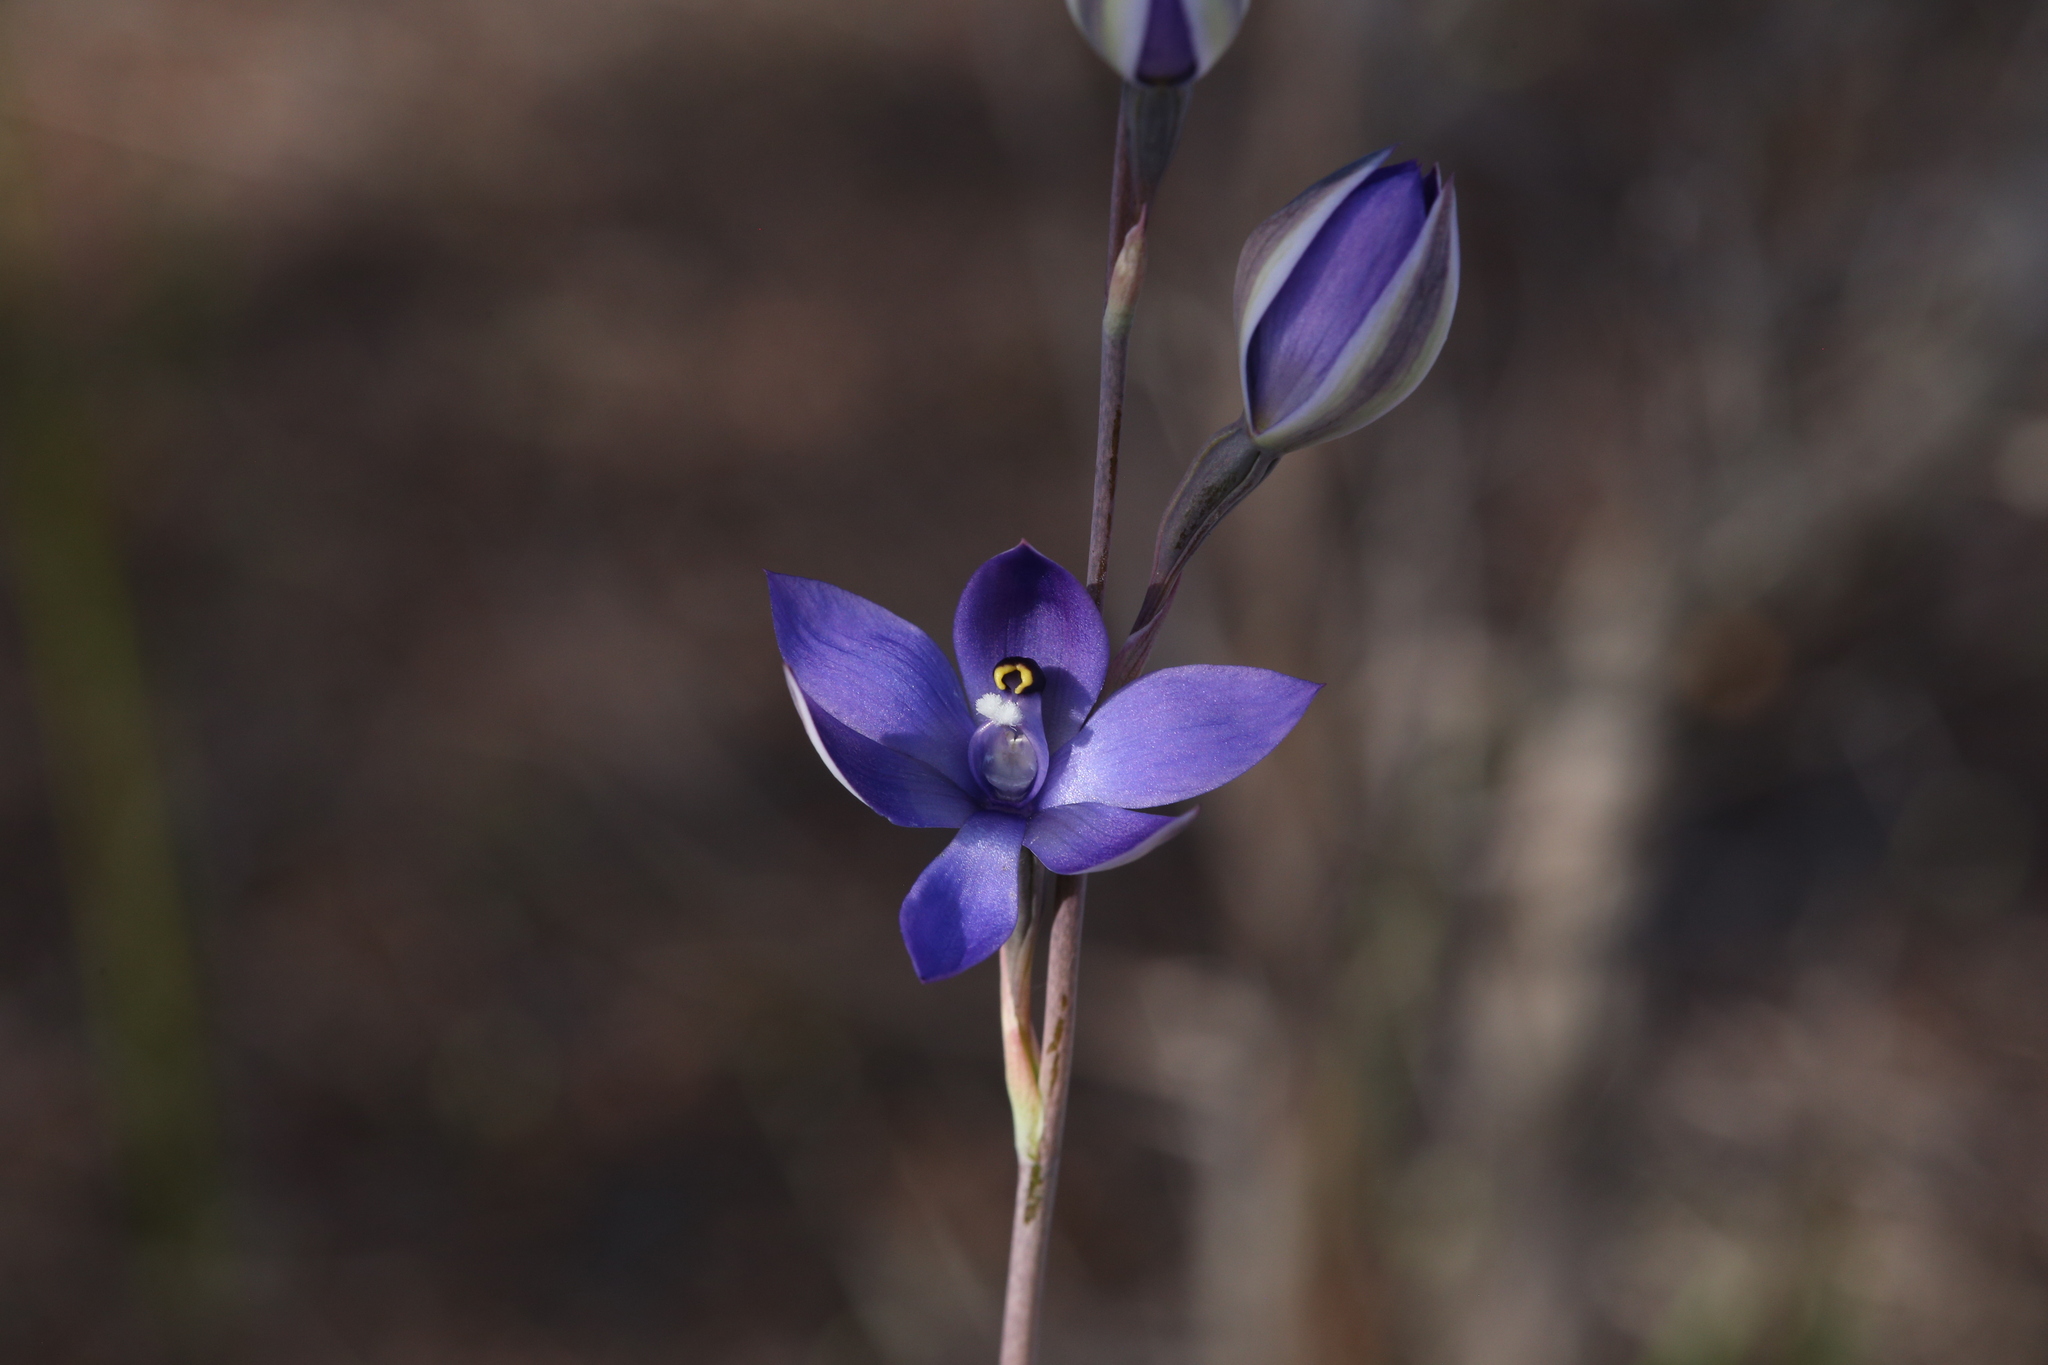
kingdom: Plantae
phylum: Tracheophyta
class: Liliopsida
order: Asparagales
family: Orchidaceae
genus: Thelymitra
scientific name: Thelymitra graminea
